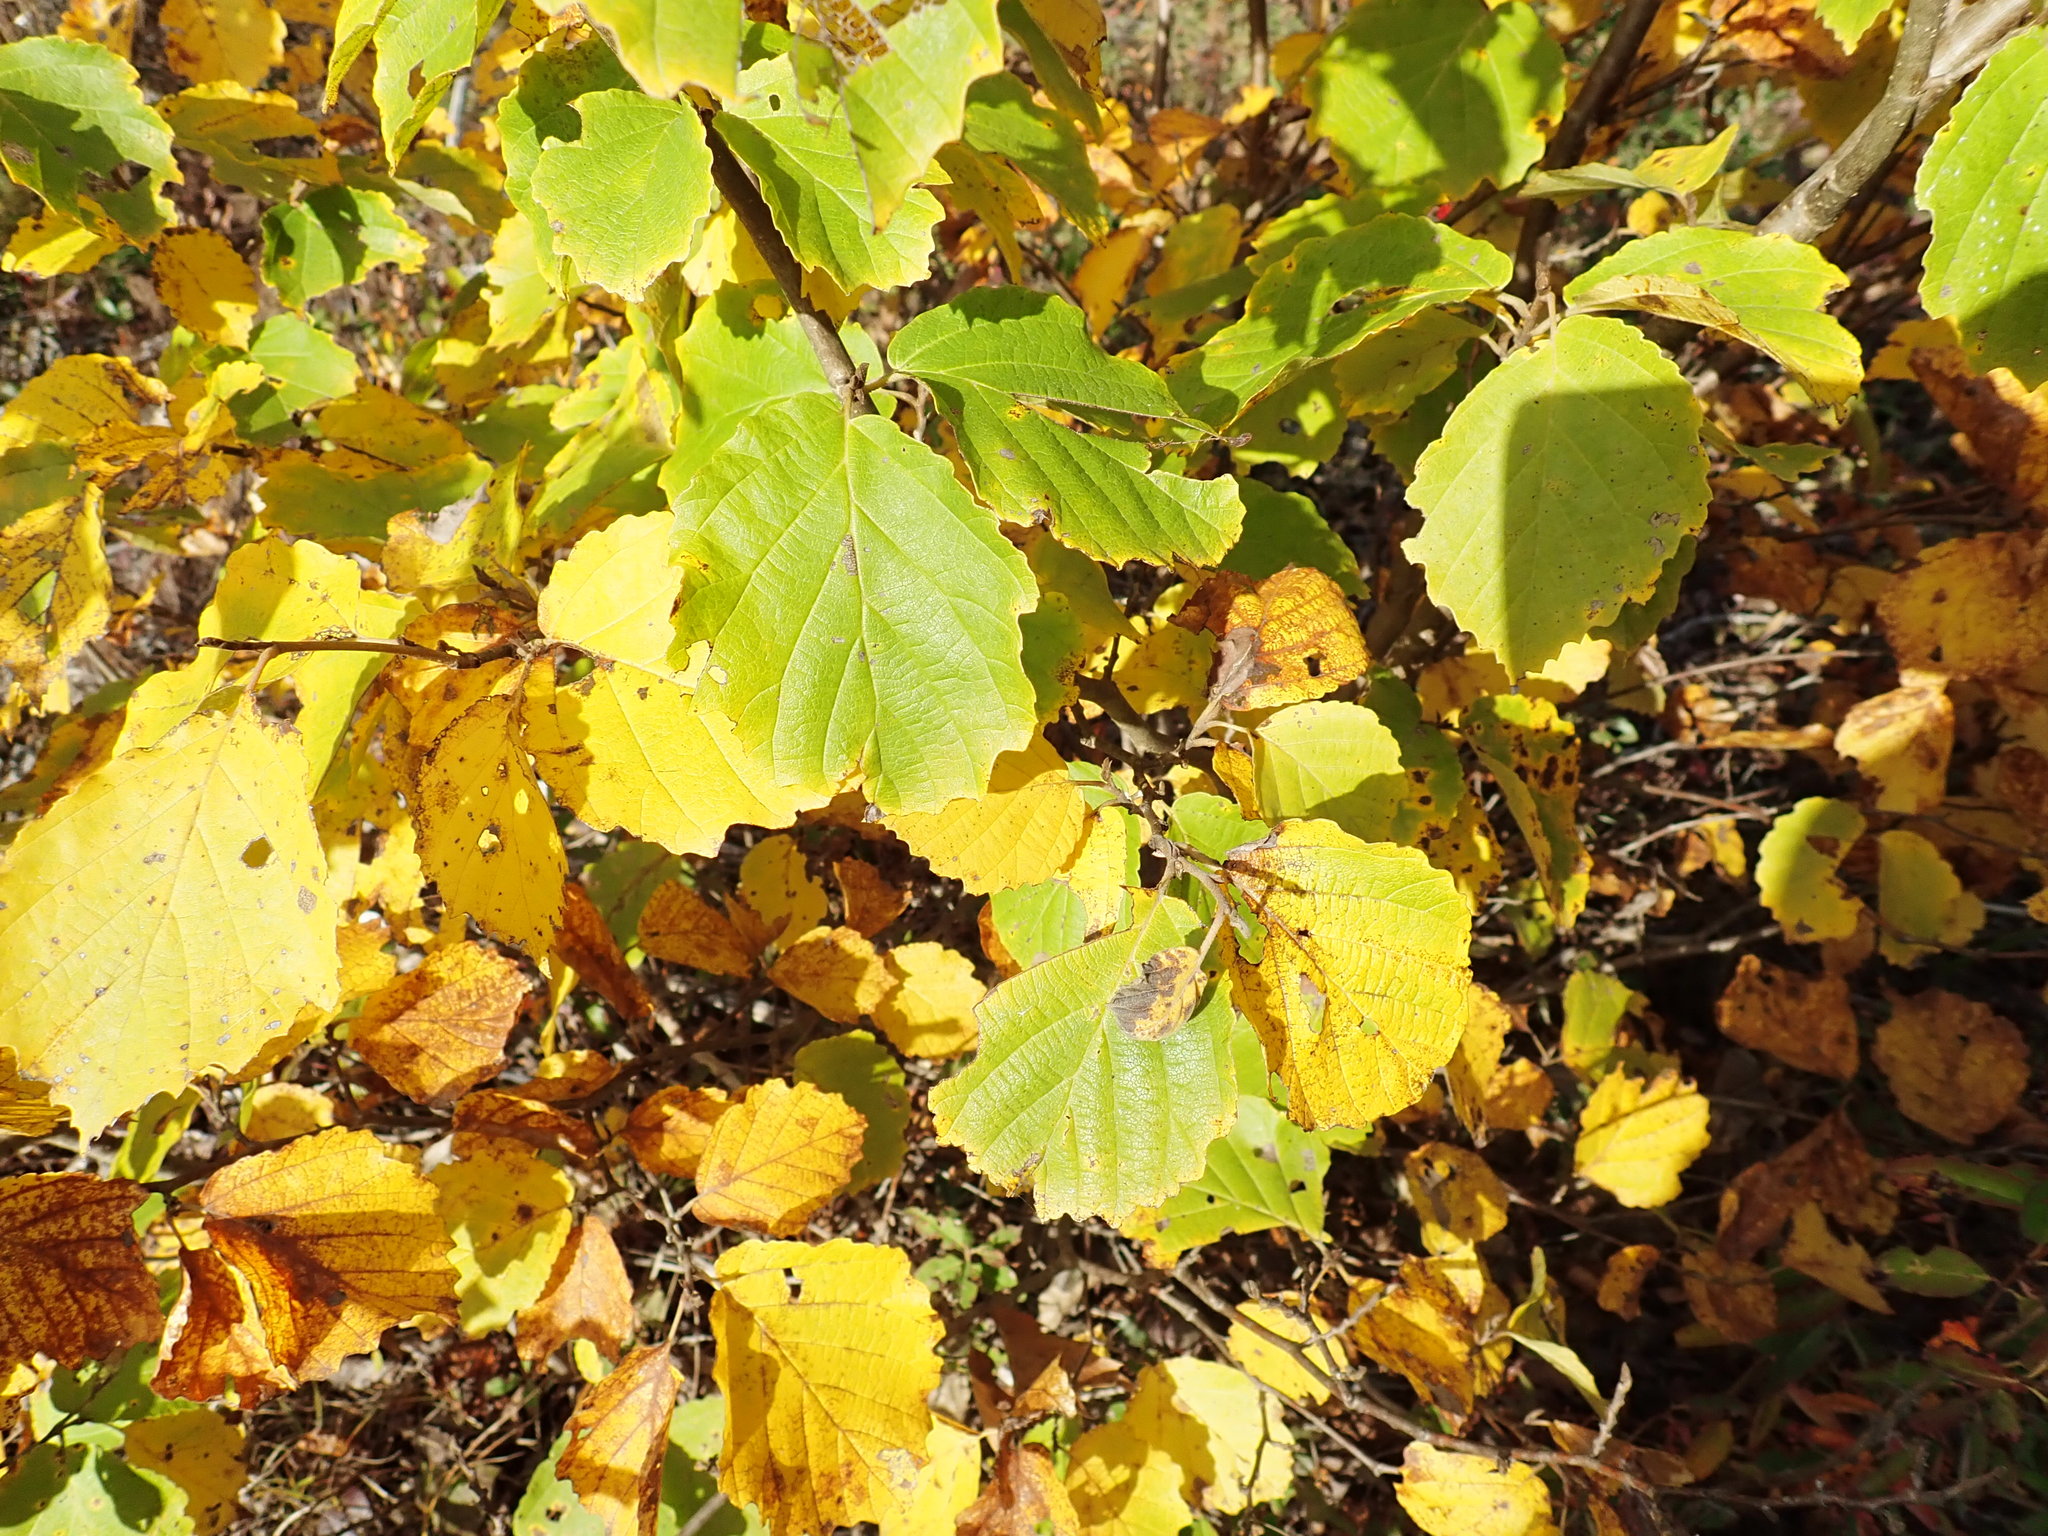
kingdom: Plantae
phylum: Tracheophyta
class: Magnoliopsida
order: Saxifragales
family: Hamamelidaceae
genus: Hamamelis
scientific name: Hamamelis virginiana
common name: Witch-hazel
